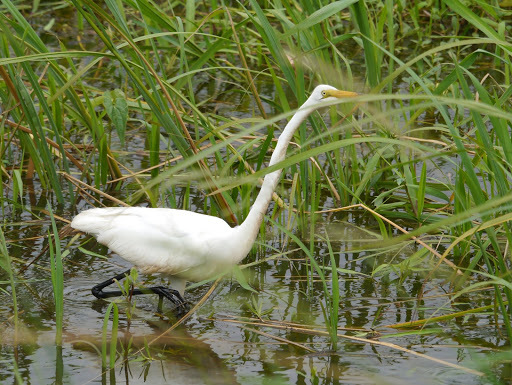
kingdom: Animalia
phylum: Chordata
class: Aves
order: Pelecaniformes
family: Ardeidae
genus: Ardea
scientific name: Ardea alba
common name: Great egret
